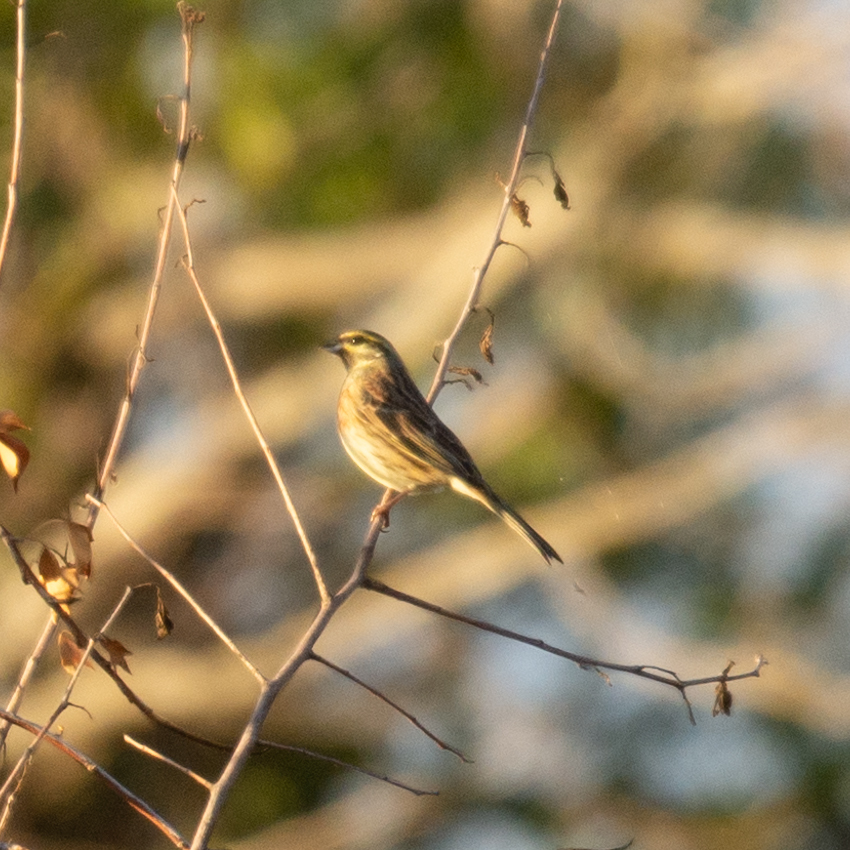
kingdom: Animalia
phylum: Chordata
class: Aves
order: Passeriformes
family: Emberizidae
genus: Emberiza
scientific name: Emberiza cirlus
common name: Cirl bunting
